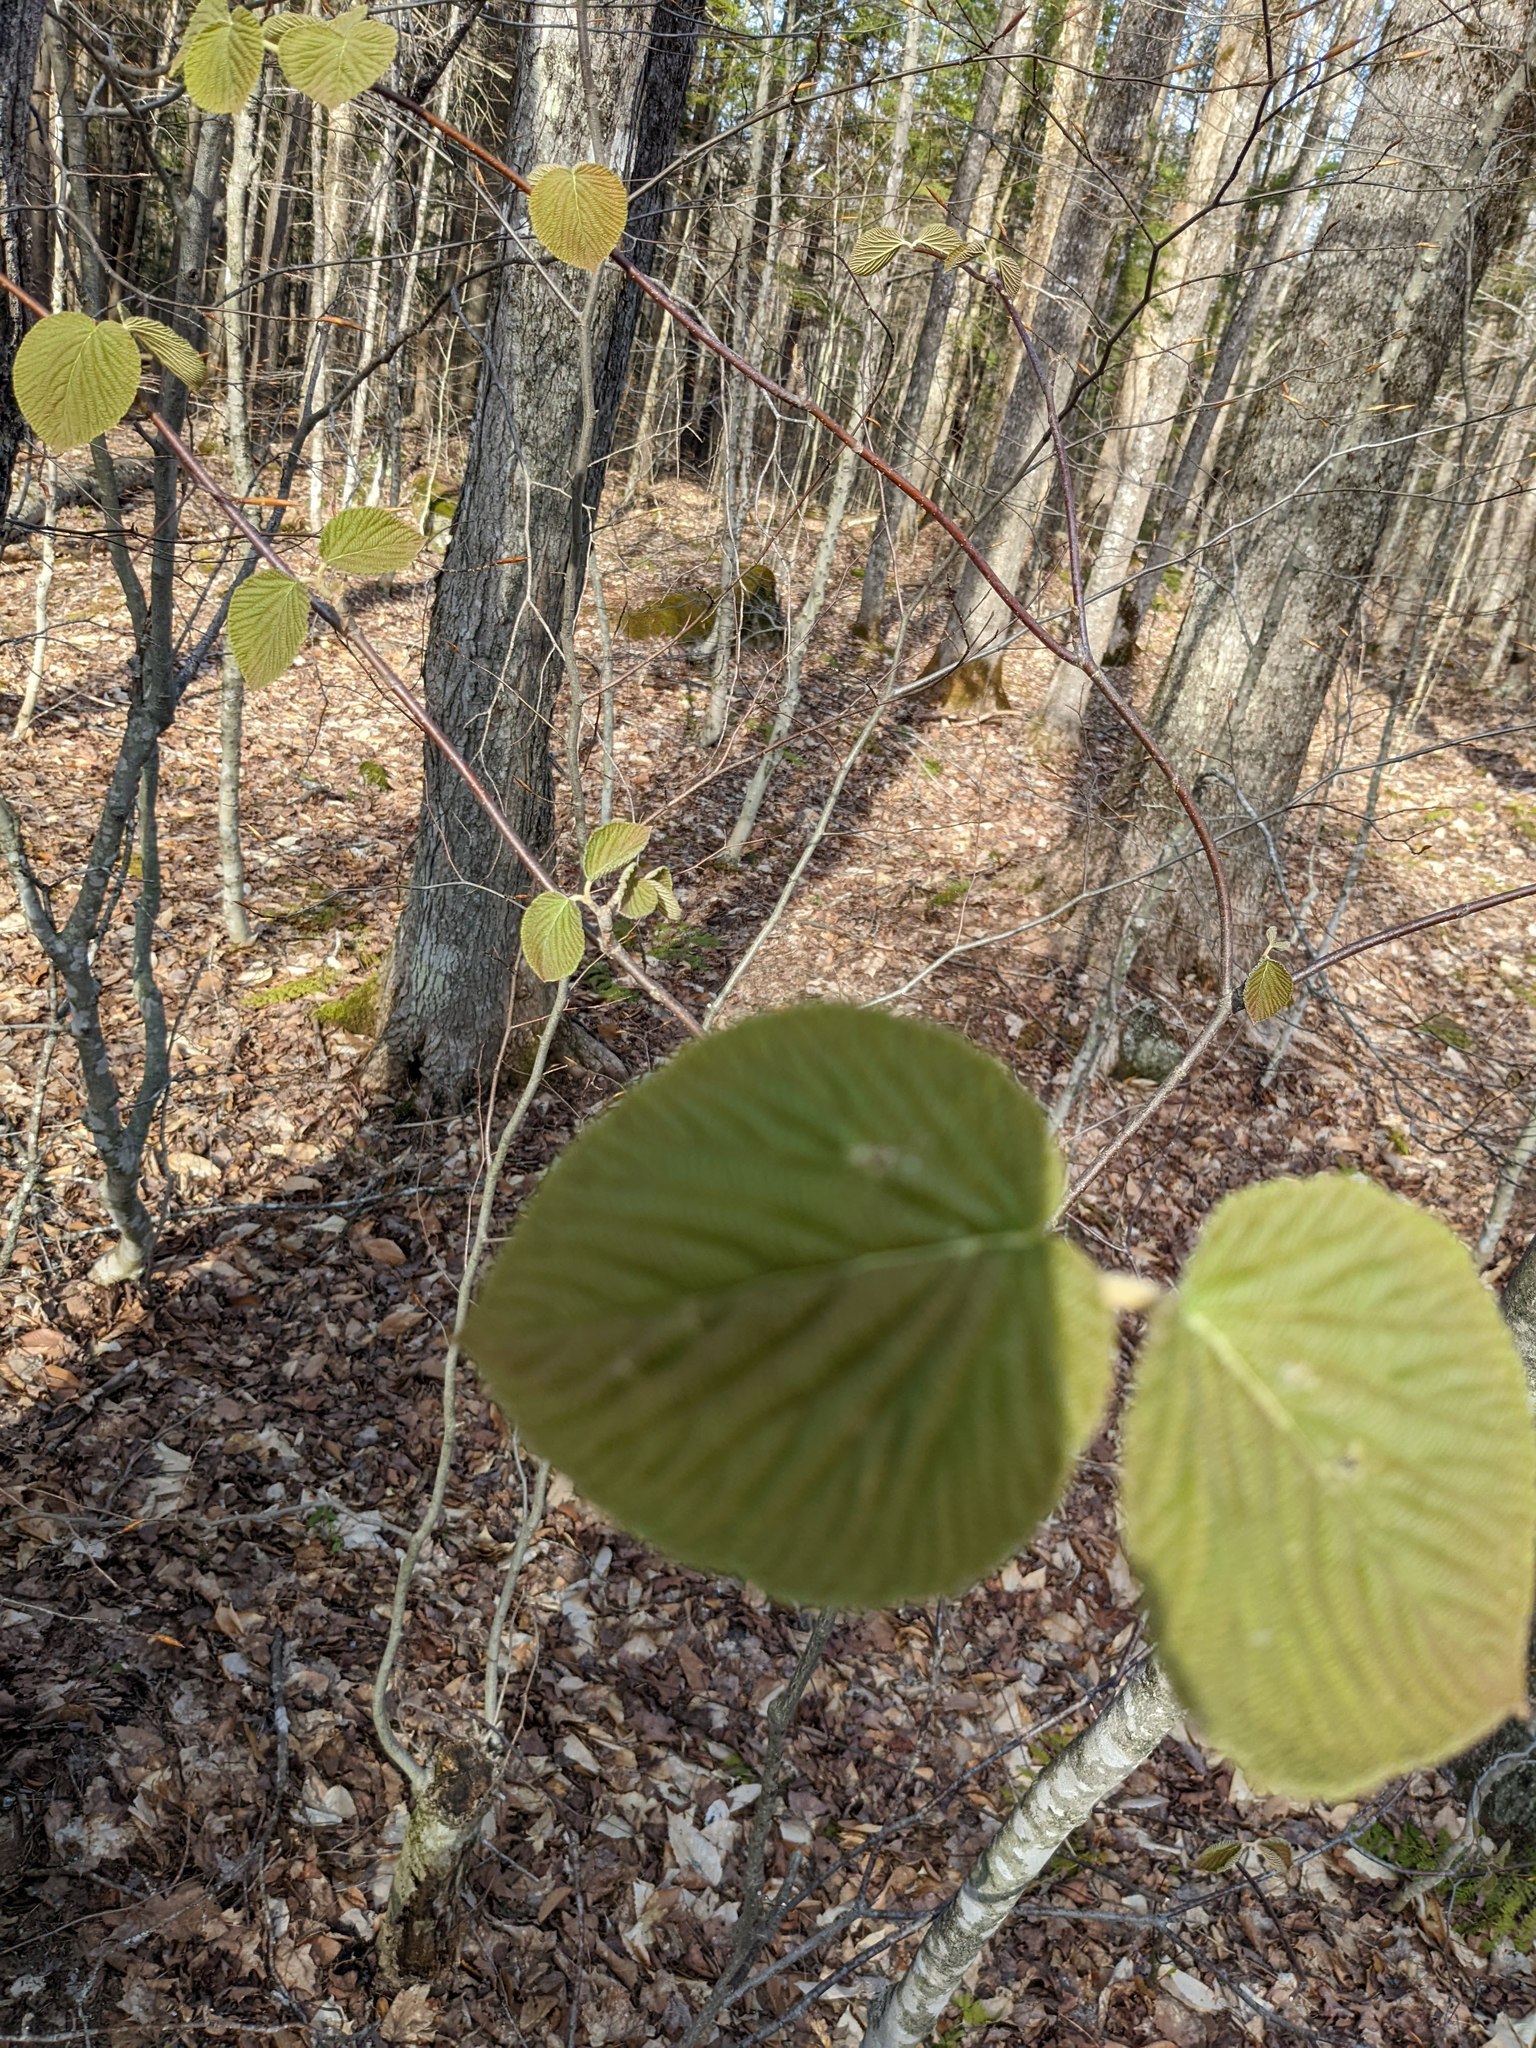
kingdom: Plantae
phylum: Tracheophyta
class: Magnoliopsida
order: Dipsacales
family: Viburnaceae
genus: Viburnum
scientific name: Viburnum lantanoides
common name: Hobblebush
